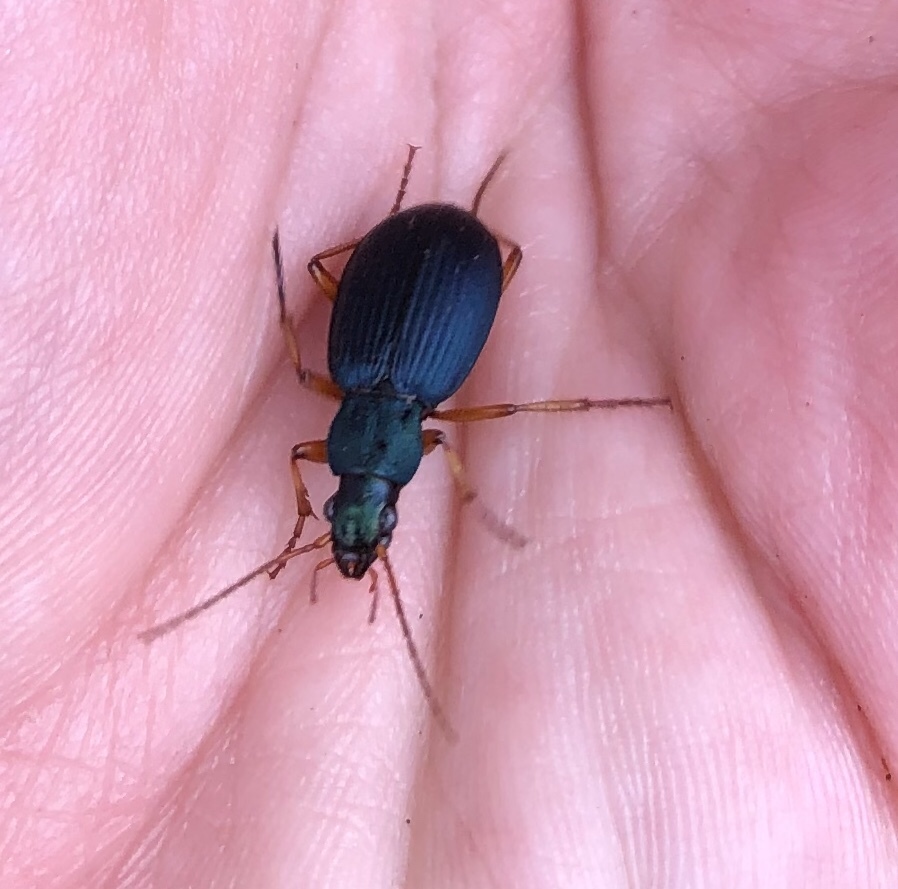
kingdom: Animalia
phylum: Arthropoda
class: Insecta
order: Coleoptera
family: Carabidae
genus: Chlaenius
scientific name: Chlaenius cumatilis
